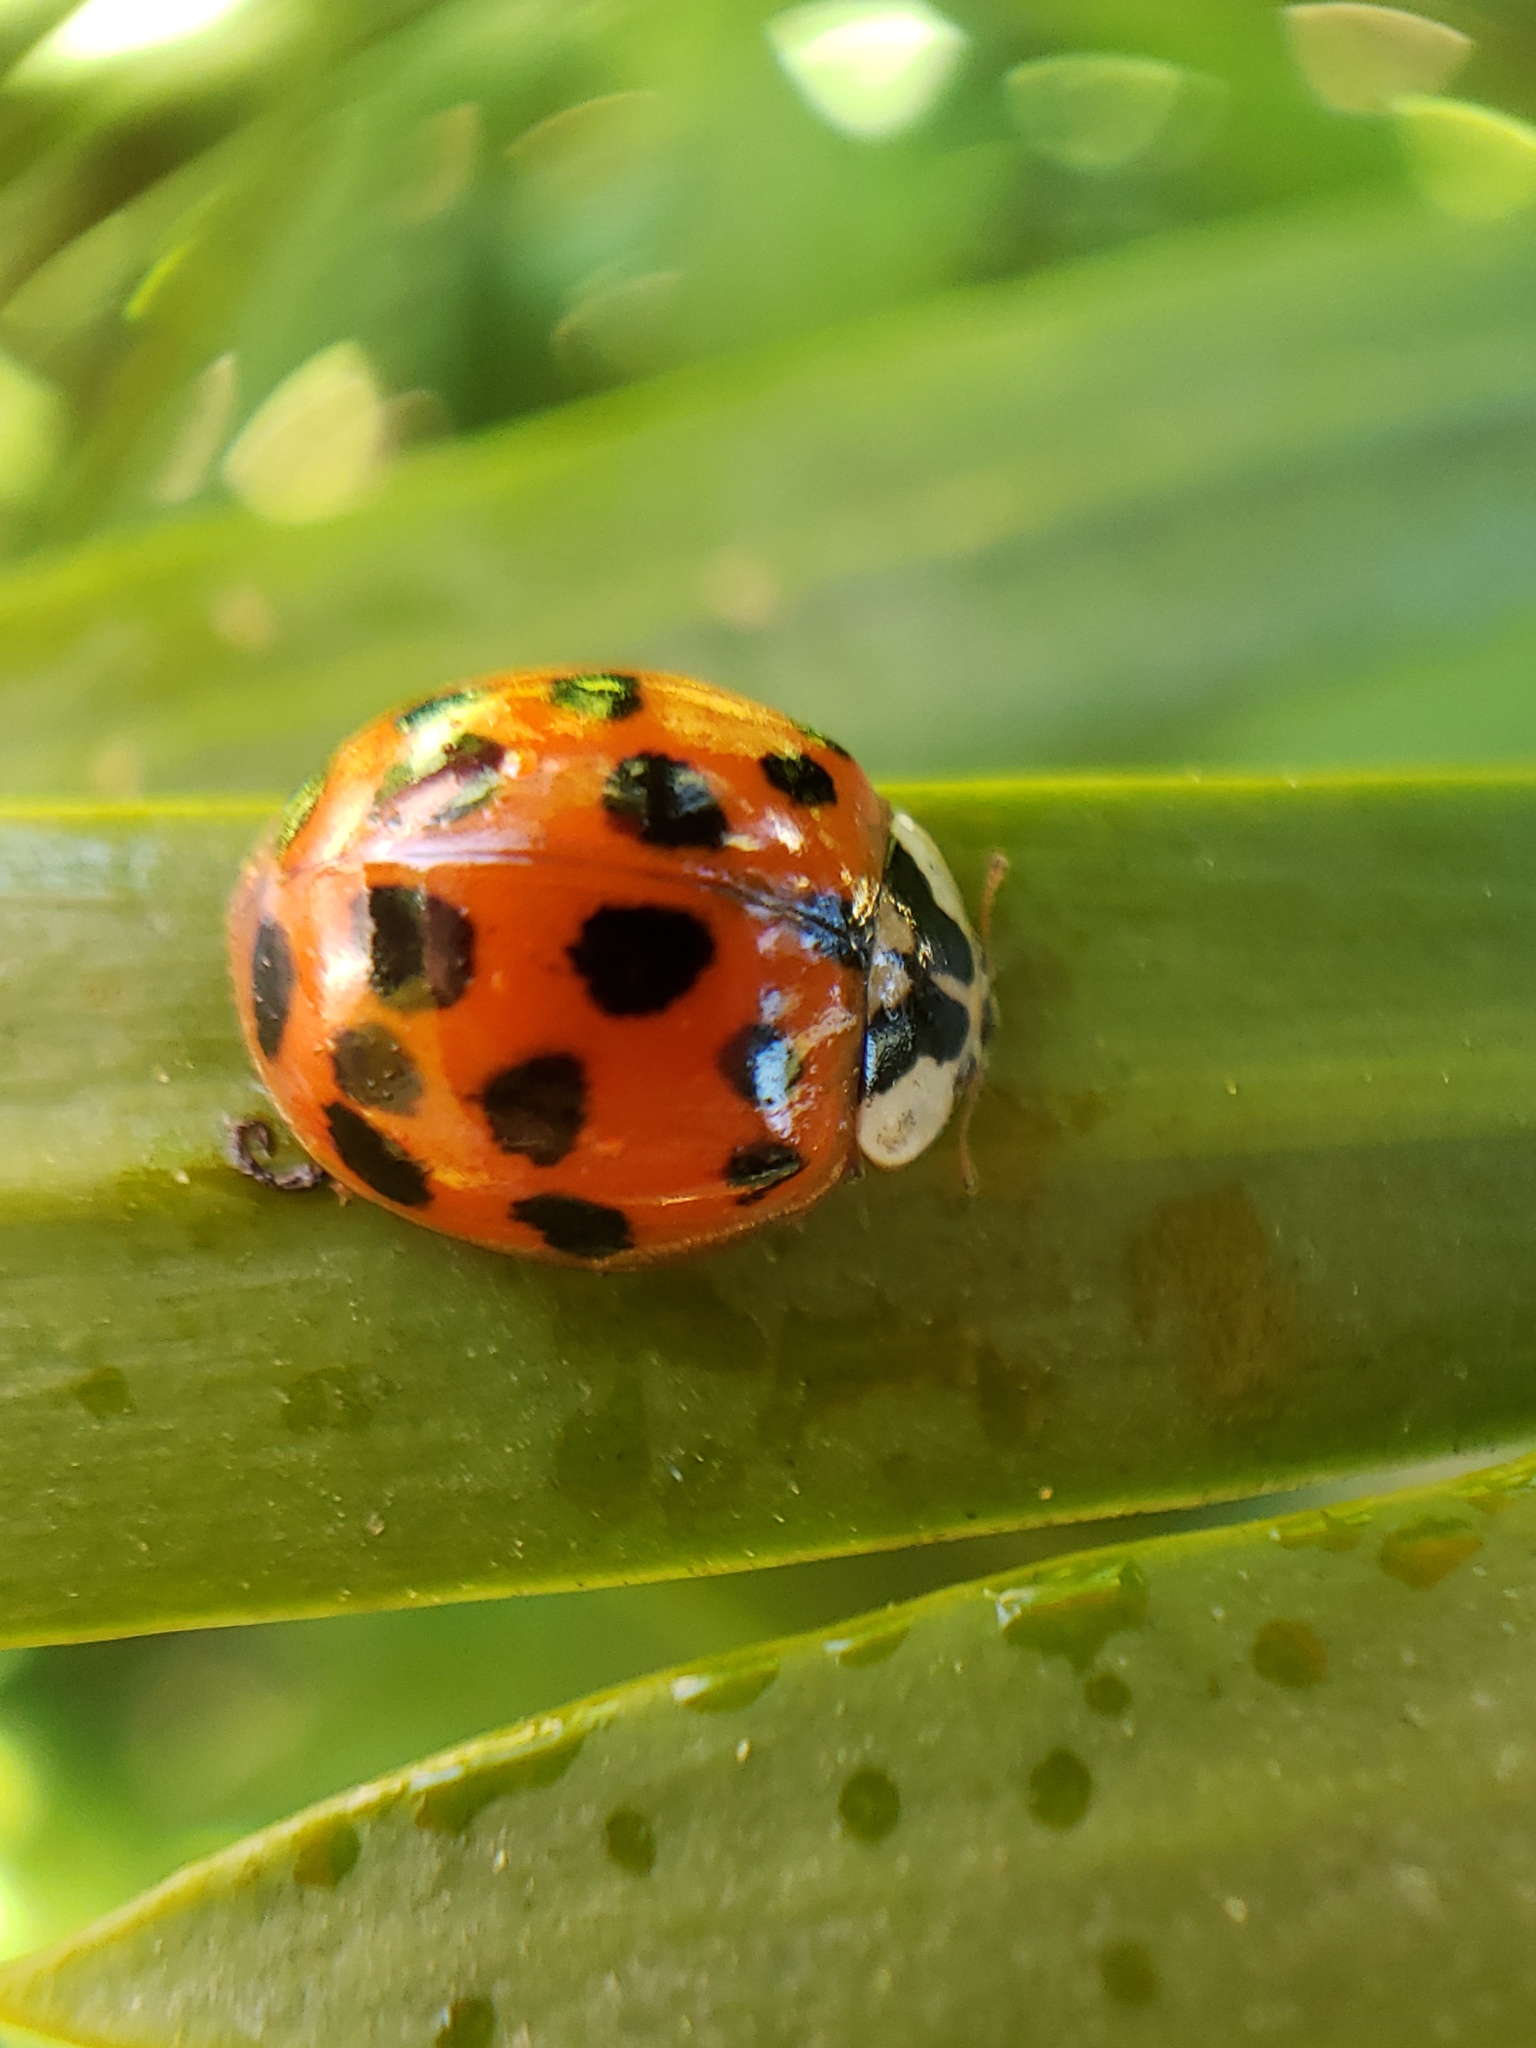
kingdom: Animalia
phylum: Arthropoda
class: Insecta
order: Coleoptera
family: Coccinellidae
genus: Harmonia
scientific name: Harmonia axyridis
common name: Harlequin ladybird
